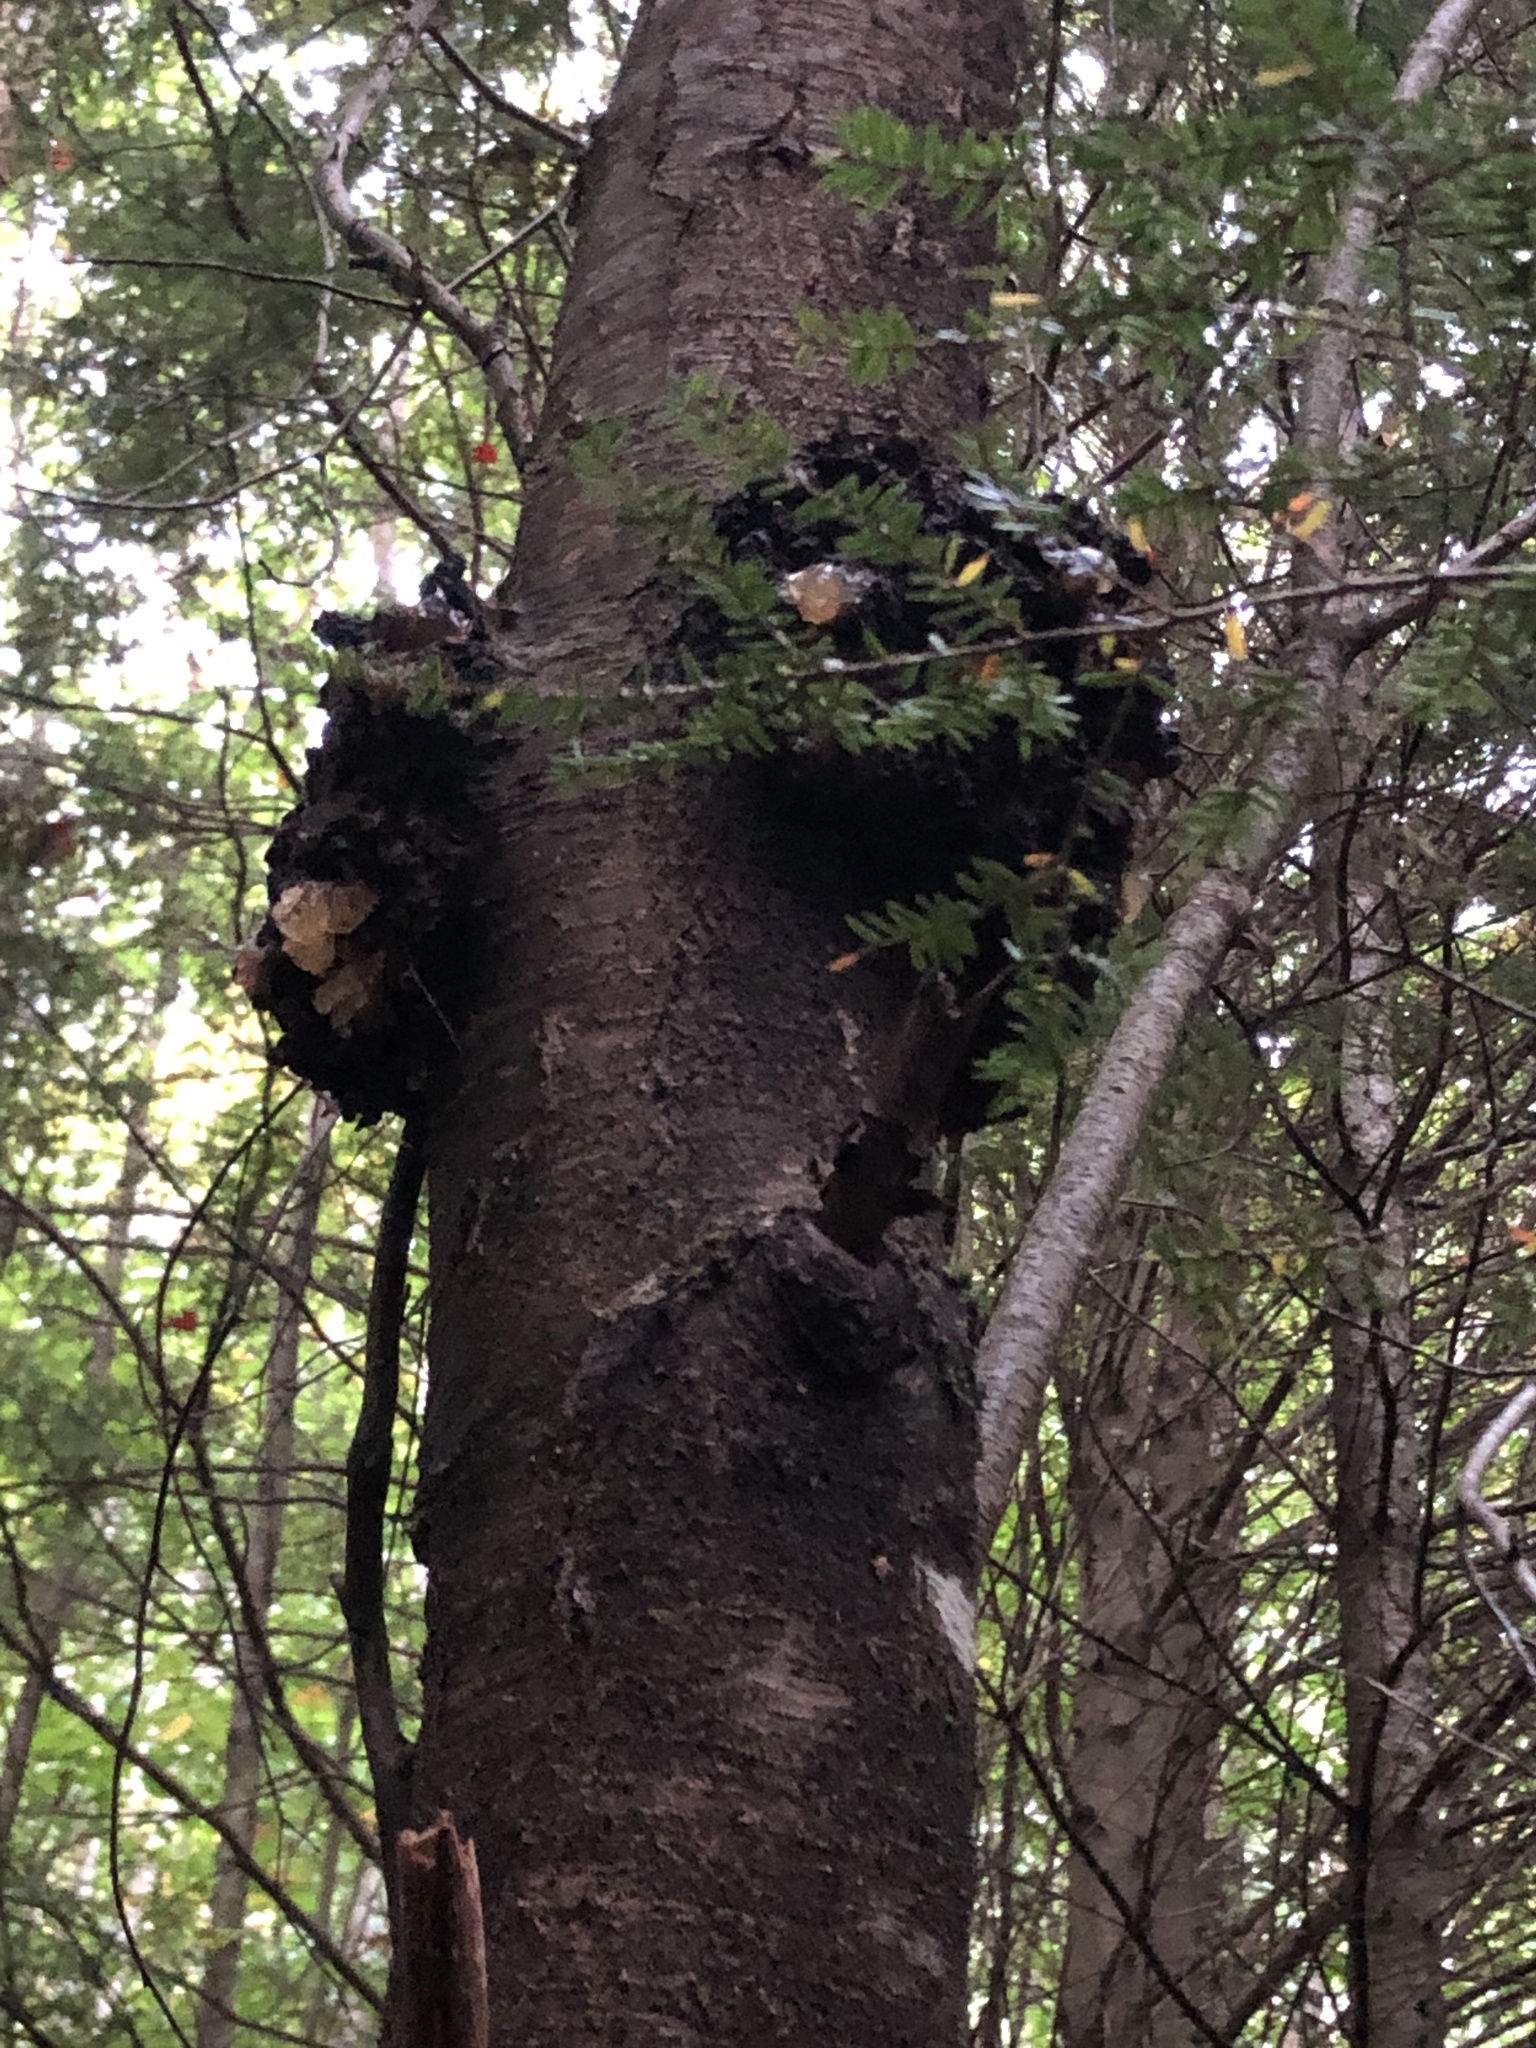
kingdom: Fungi
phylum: Basidiomycota
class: Agaricomycetes
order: Hymenochaetales
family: Hymenochaetaceae
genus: Inonotus
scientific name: Inonotus obliquus
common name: Chaga
